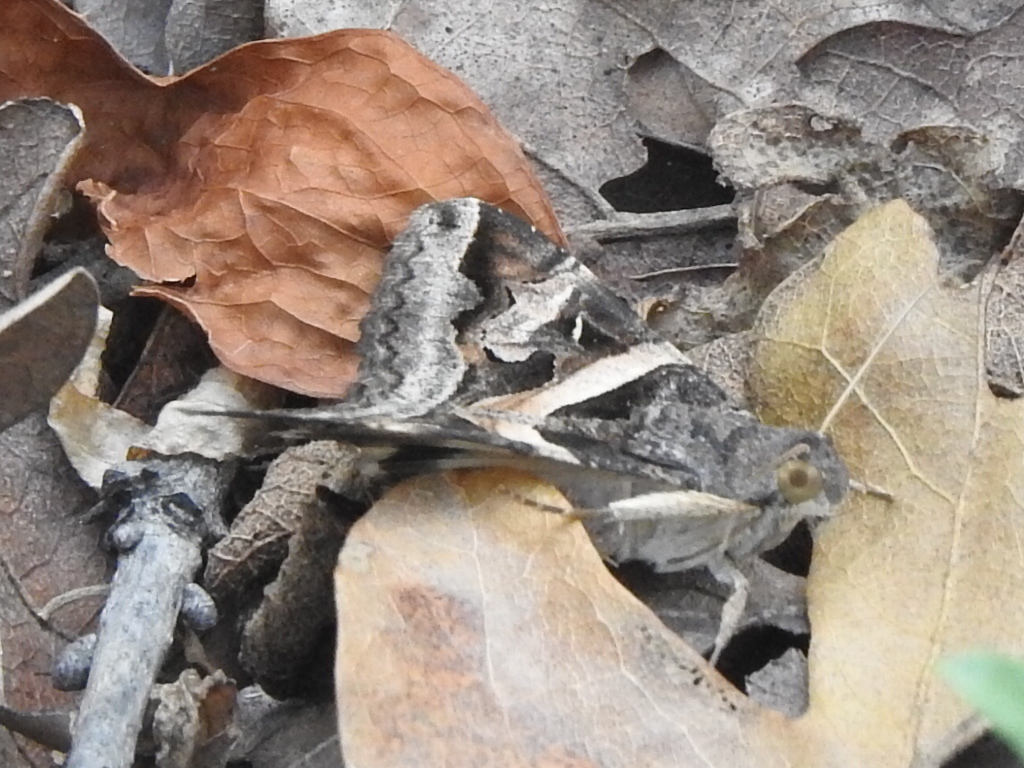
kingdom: Animalia
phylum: Arthropoda
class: Insecta
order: Lepidoptera
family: Erebidae
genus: Melipotis
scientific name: Melipotis indomita
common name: Moth
